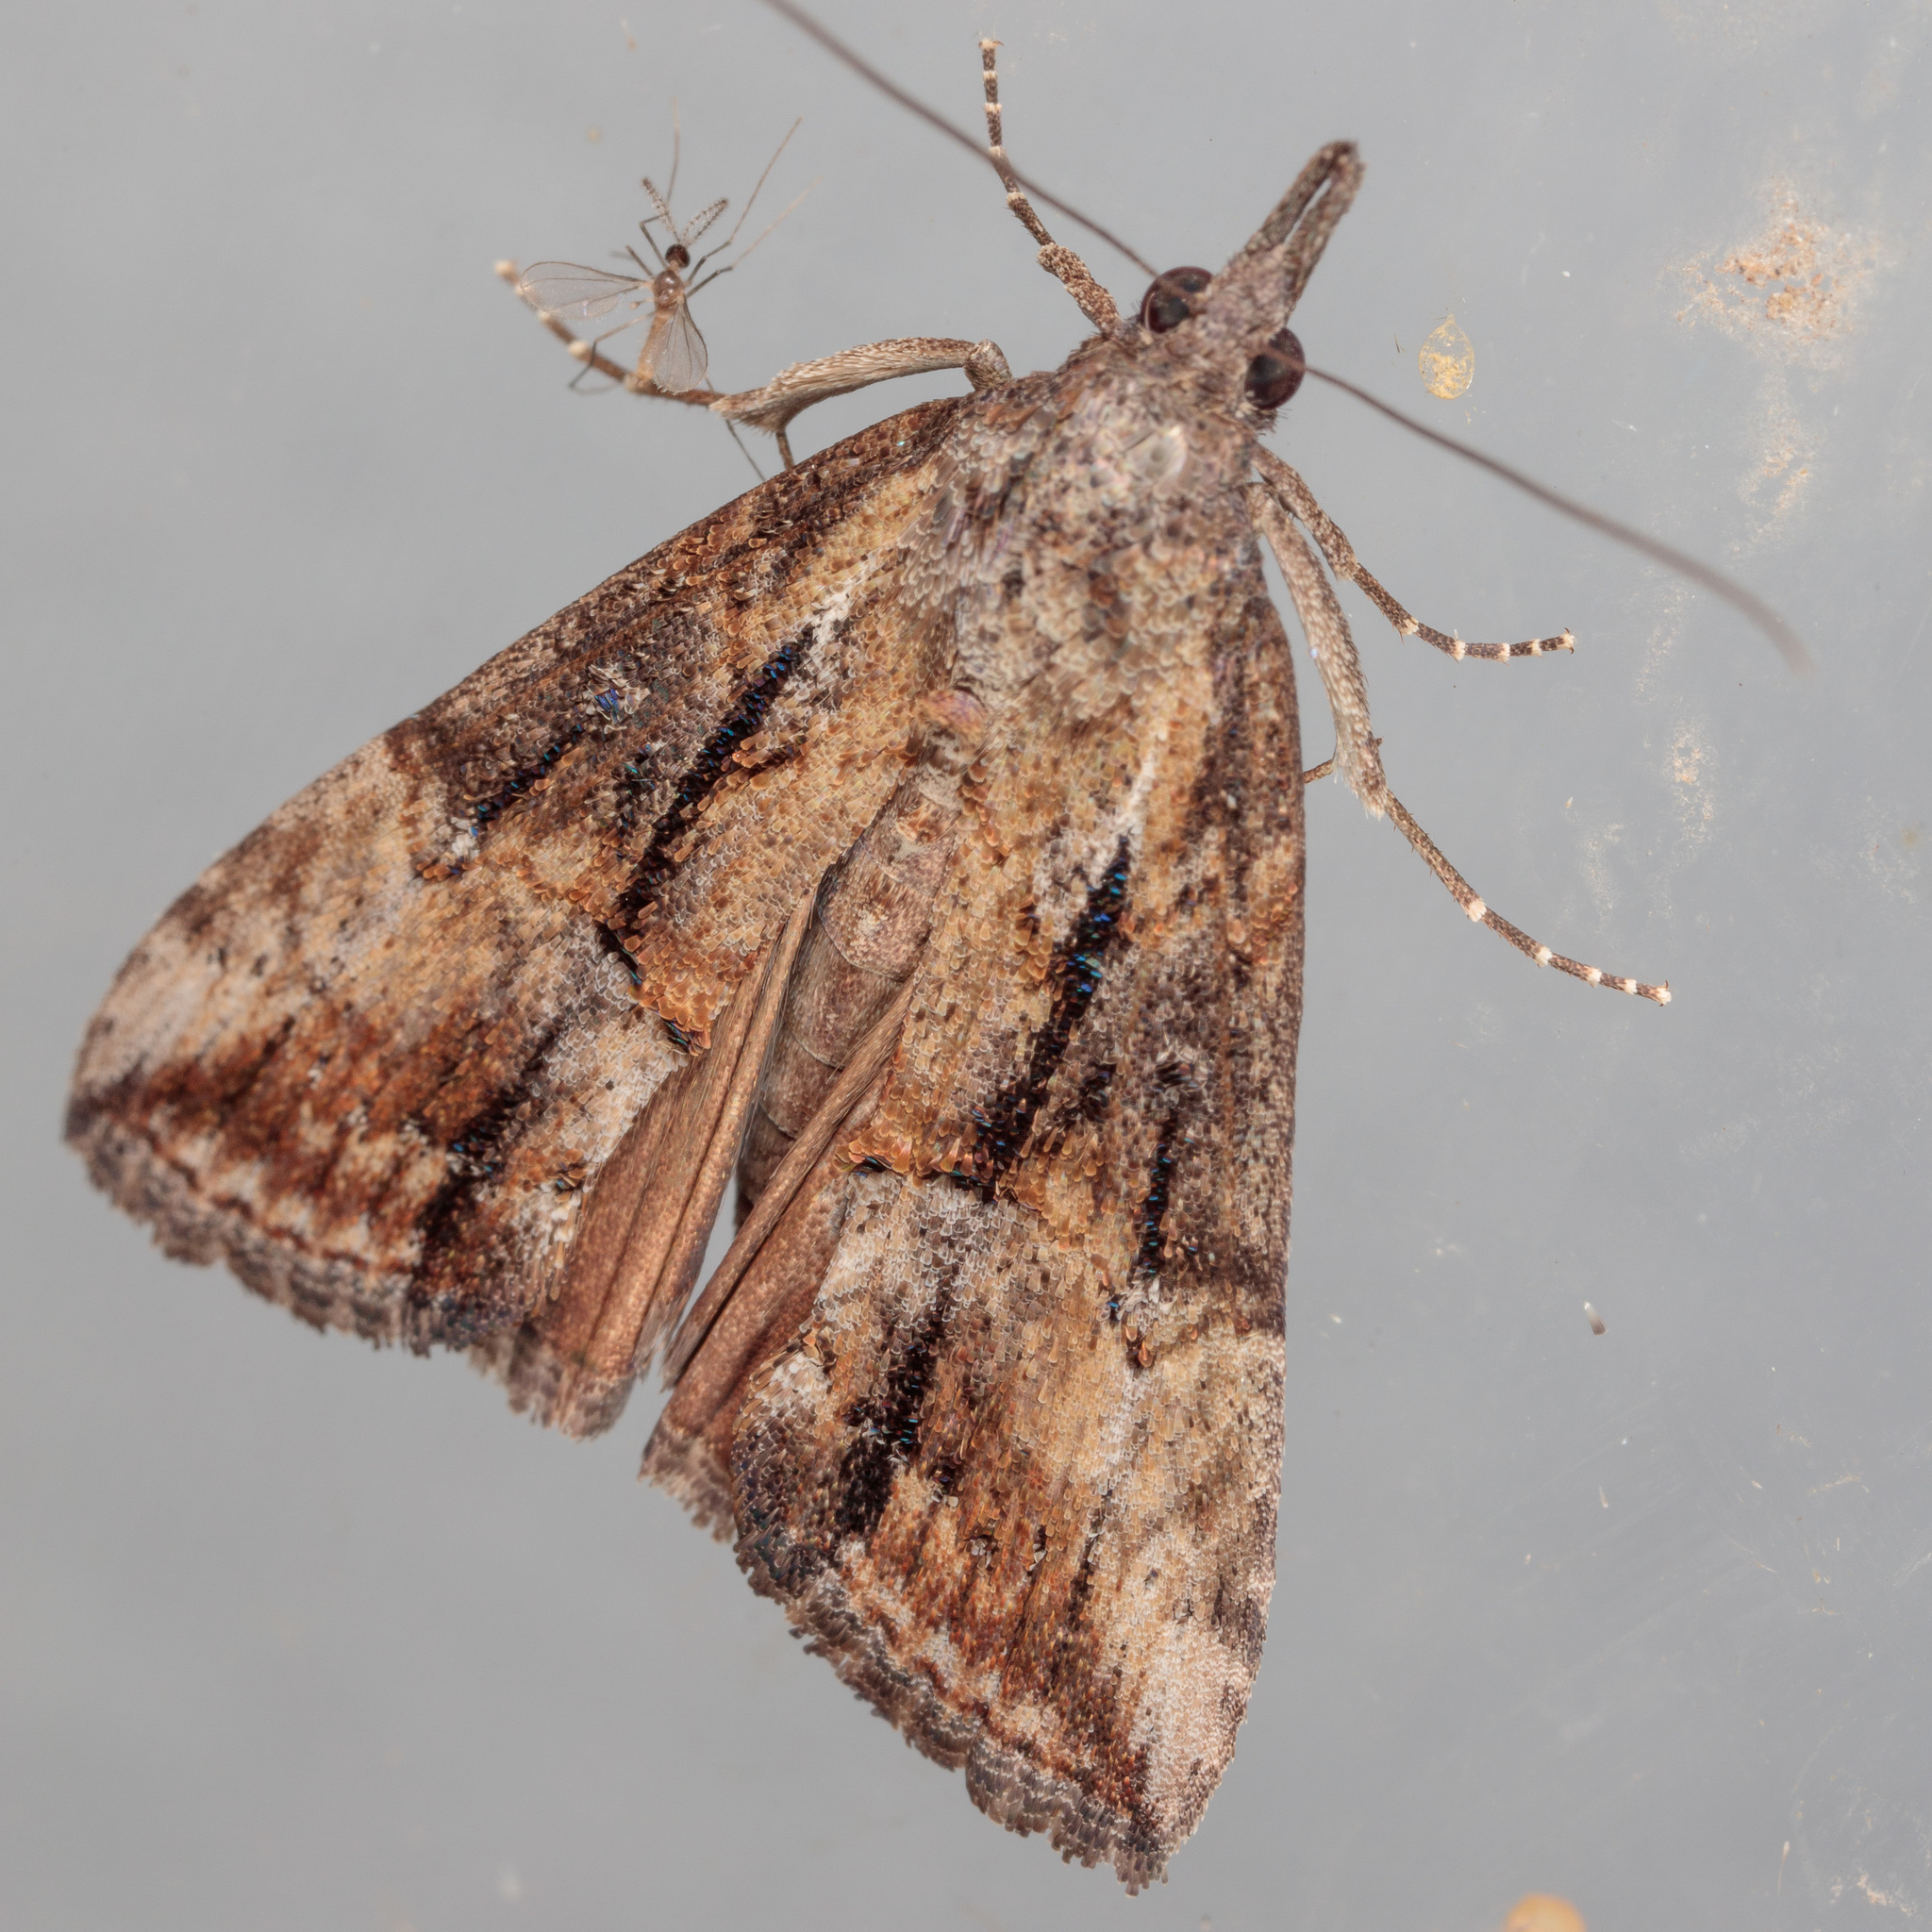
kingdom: Animalia
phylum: Arthropoda
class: Insecta
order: Lepidoptera
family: Erebidae
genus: Hypena
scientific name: Hypena scabra
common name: Green cloverworm
